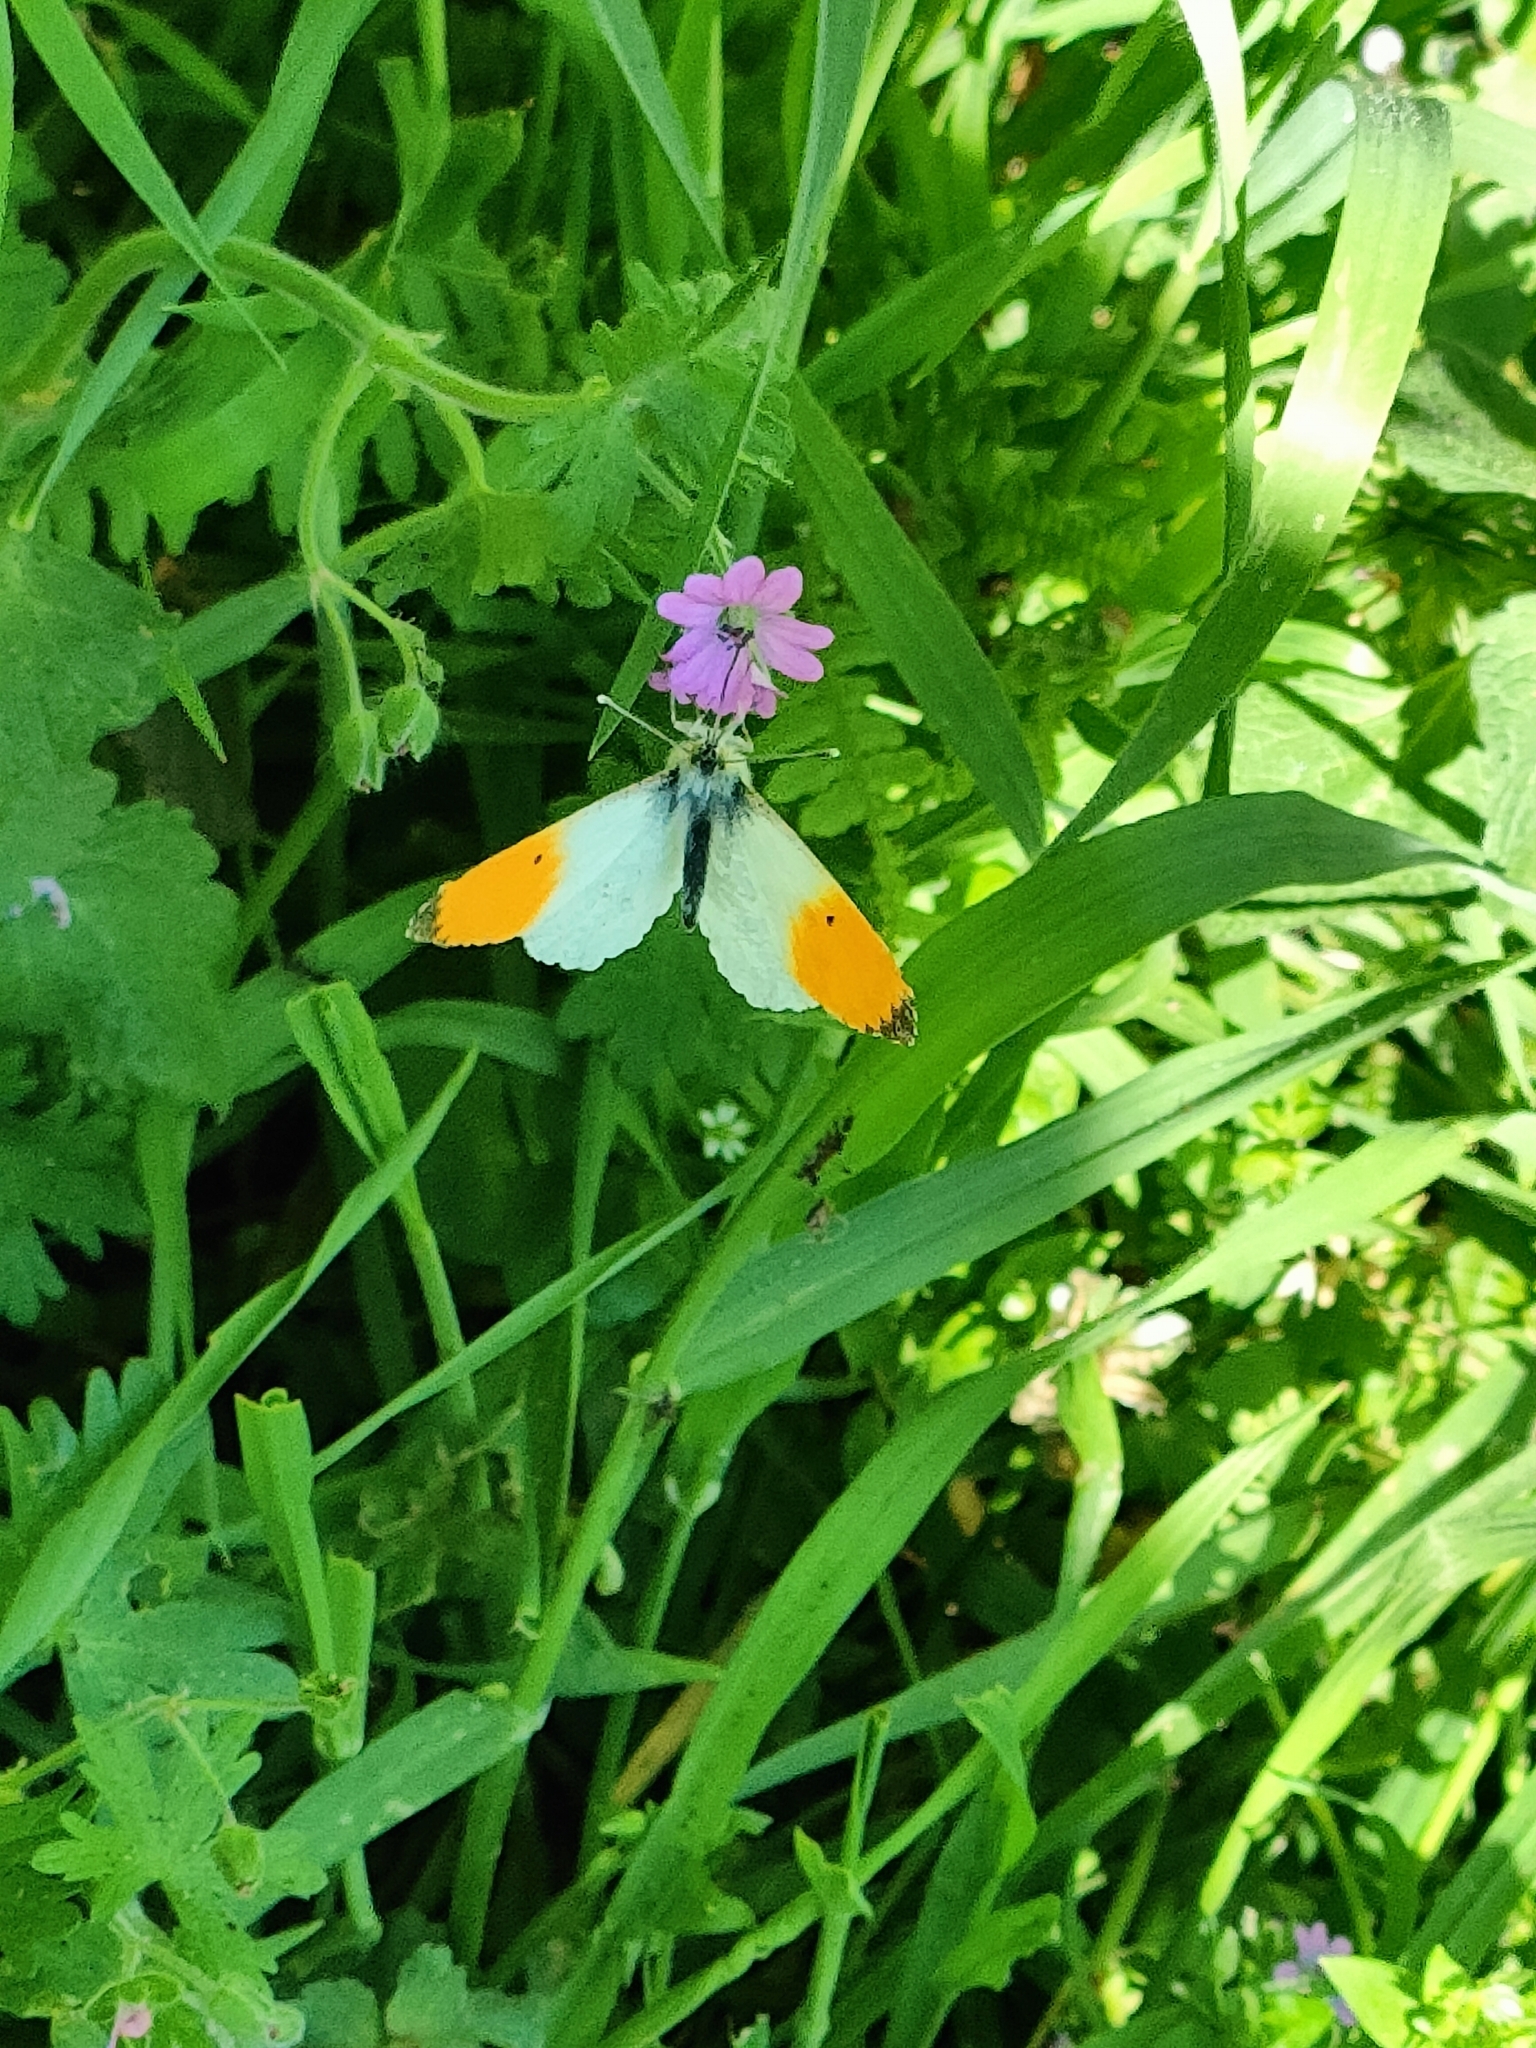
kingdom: Animalia
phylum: Arthropoda
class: Insecta
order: Lepidoptera
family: Pieridae
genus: Anthocharis
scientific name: Anthocharis cardamines
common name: Orange-tip
